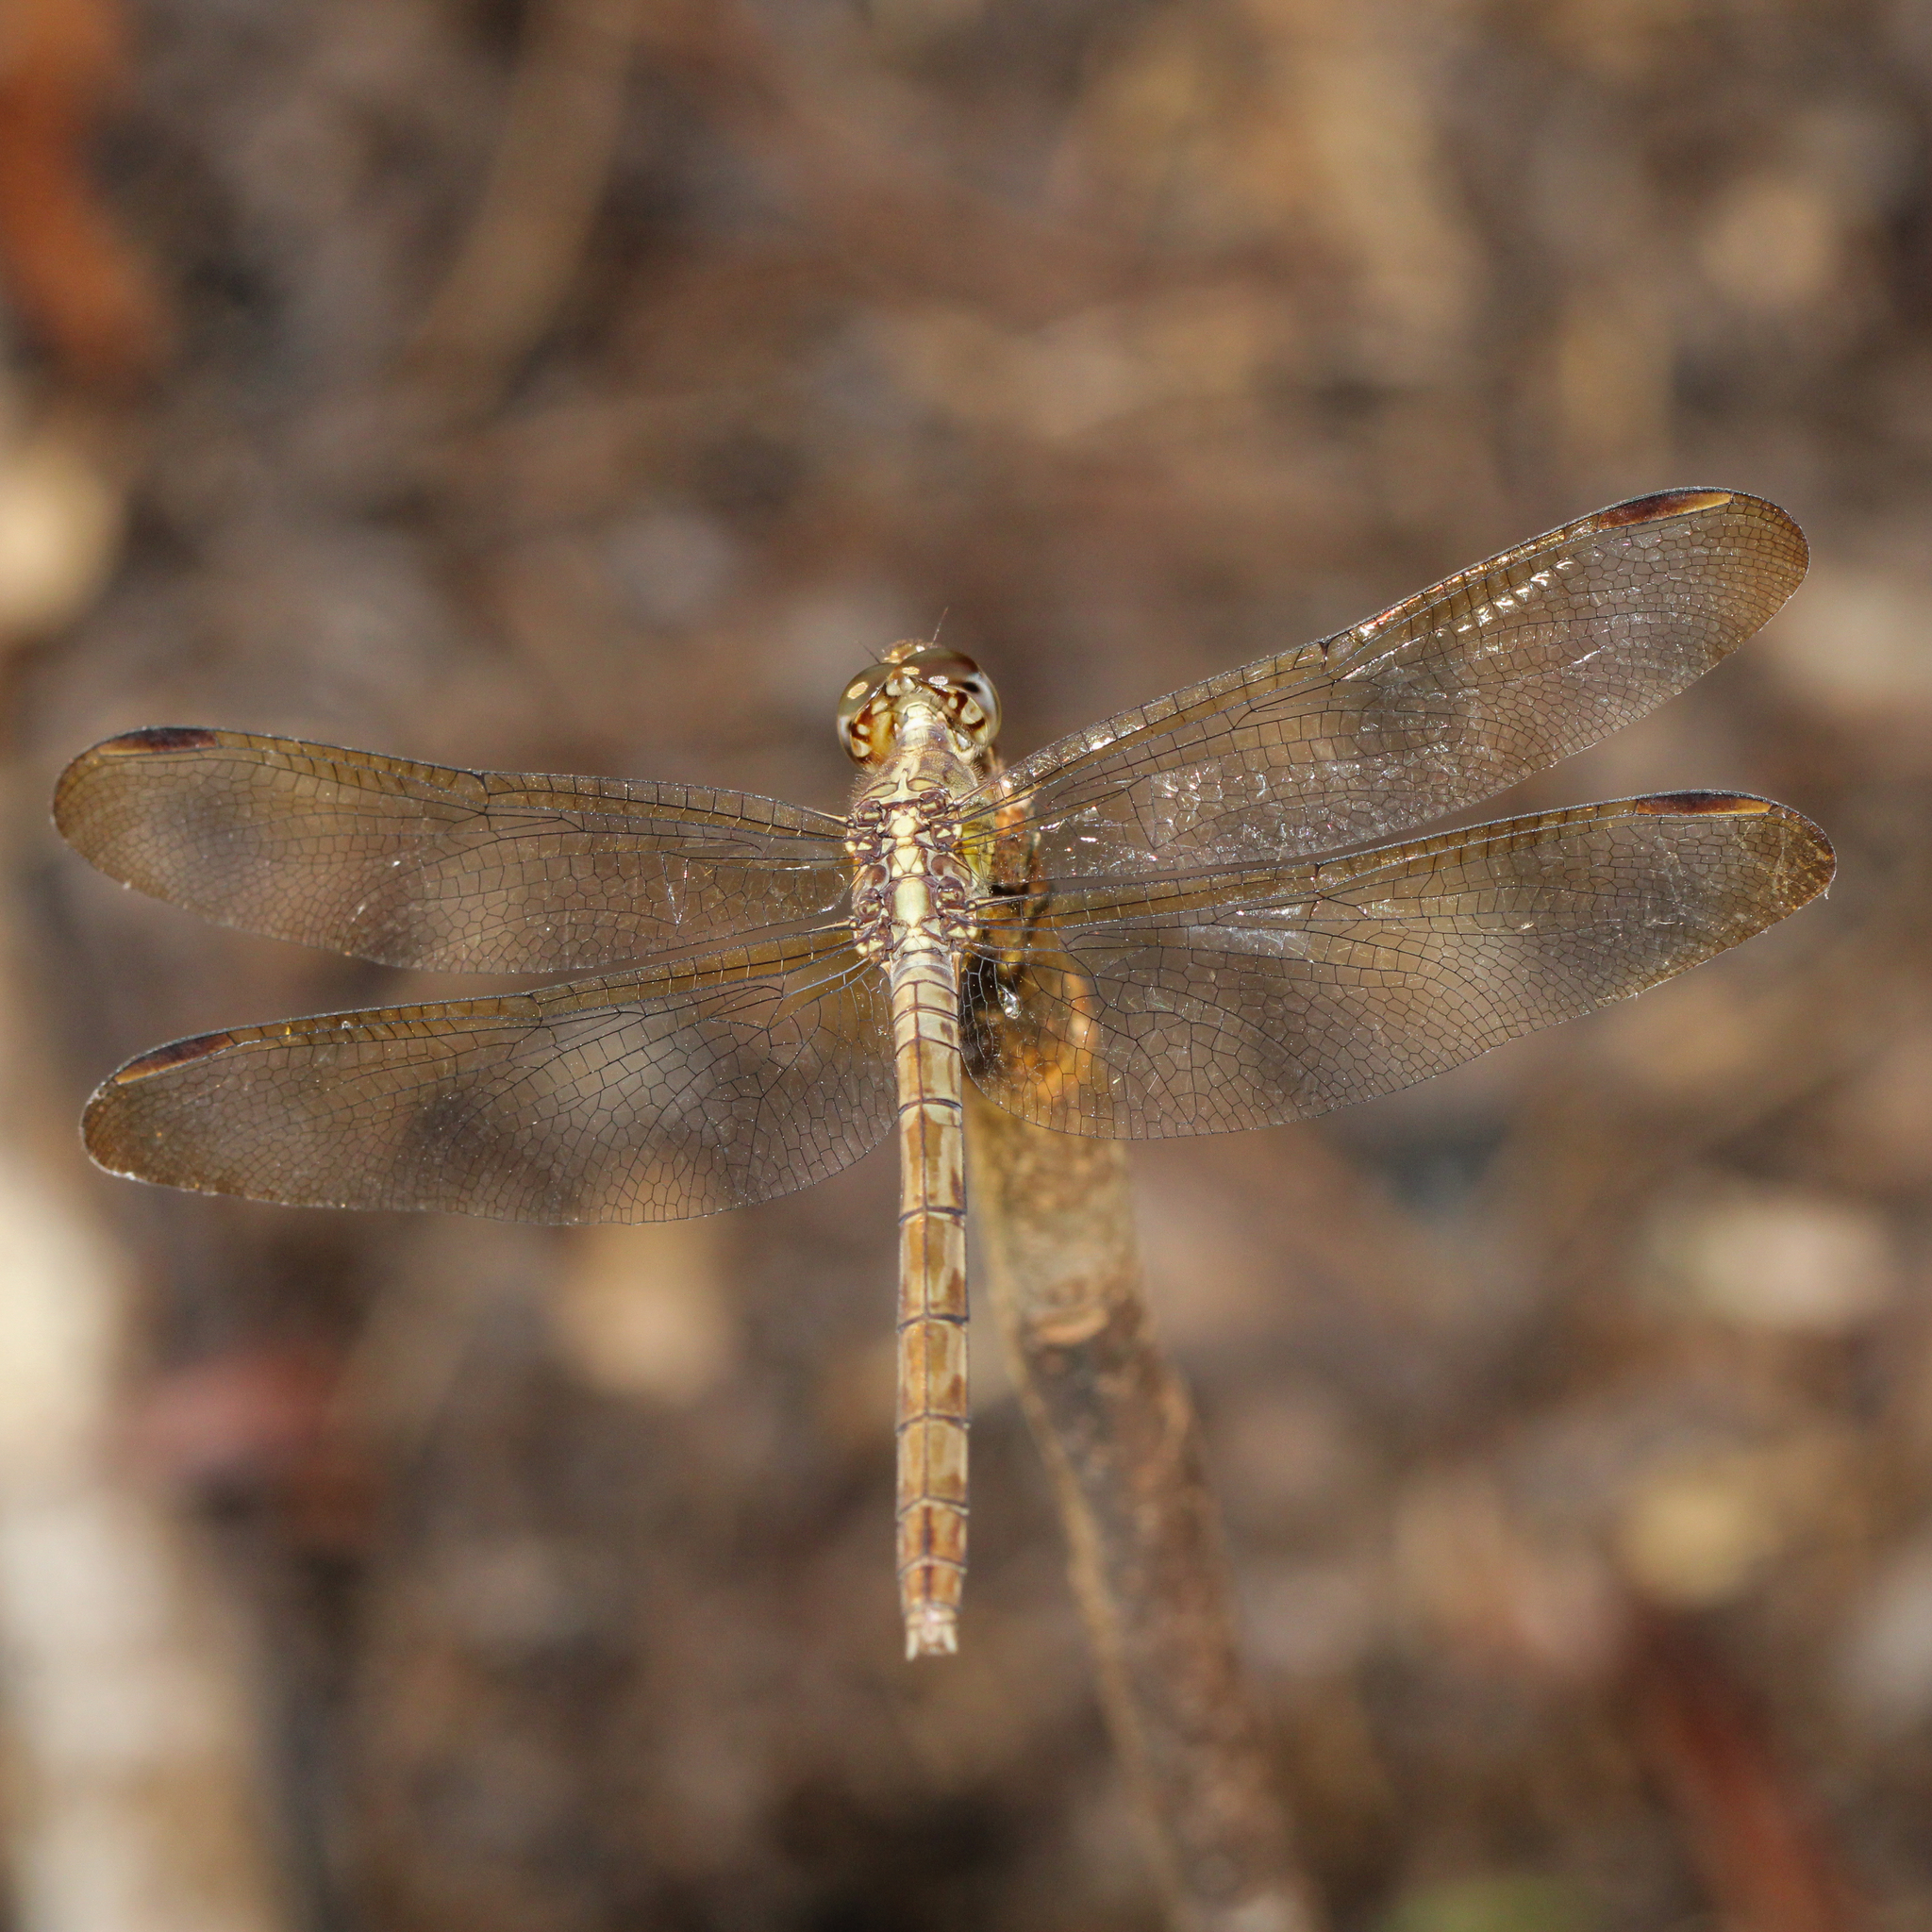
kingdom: Animalia
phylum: Arthropoda
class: Insecta
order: Odonata
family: Libellulidae
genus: Erythrodiplax
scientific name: Erythrodiplax umbrata
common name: Band-winged dragonlet
